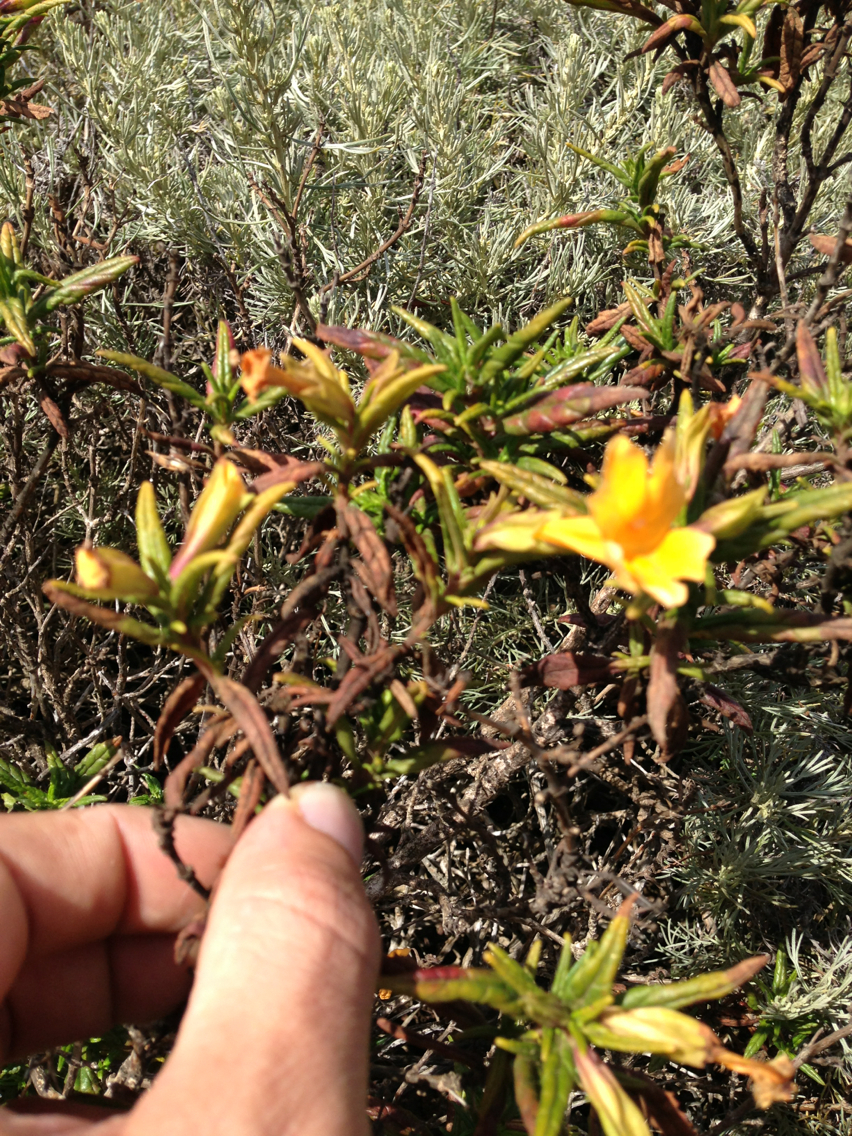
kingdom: Plantae
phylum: Tracheophyta
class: Magnoliopsida
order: Lamiales
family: Phrymaceae
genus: Diplacus
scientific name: Diplacus aurantiacus
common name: Bush monkey-flower
